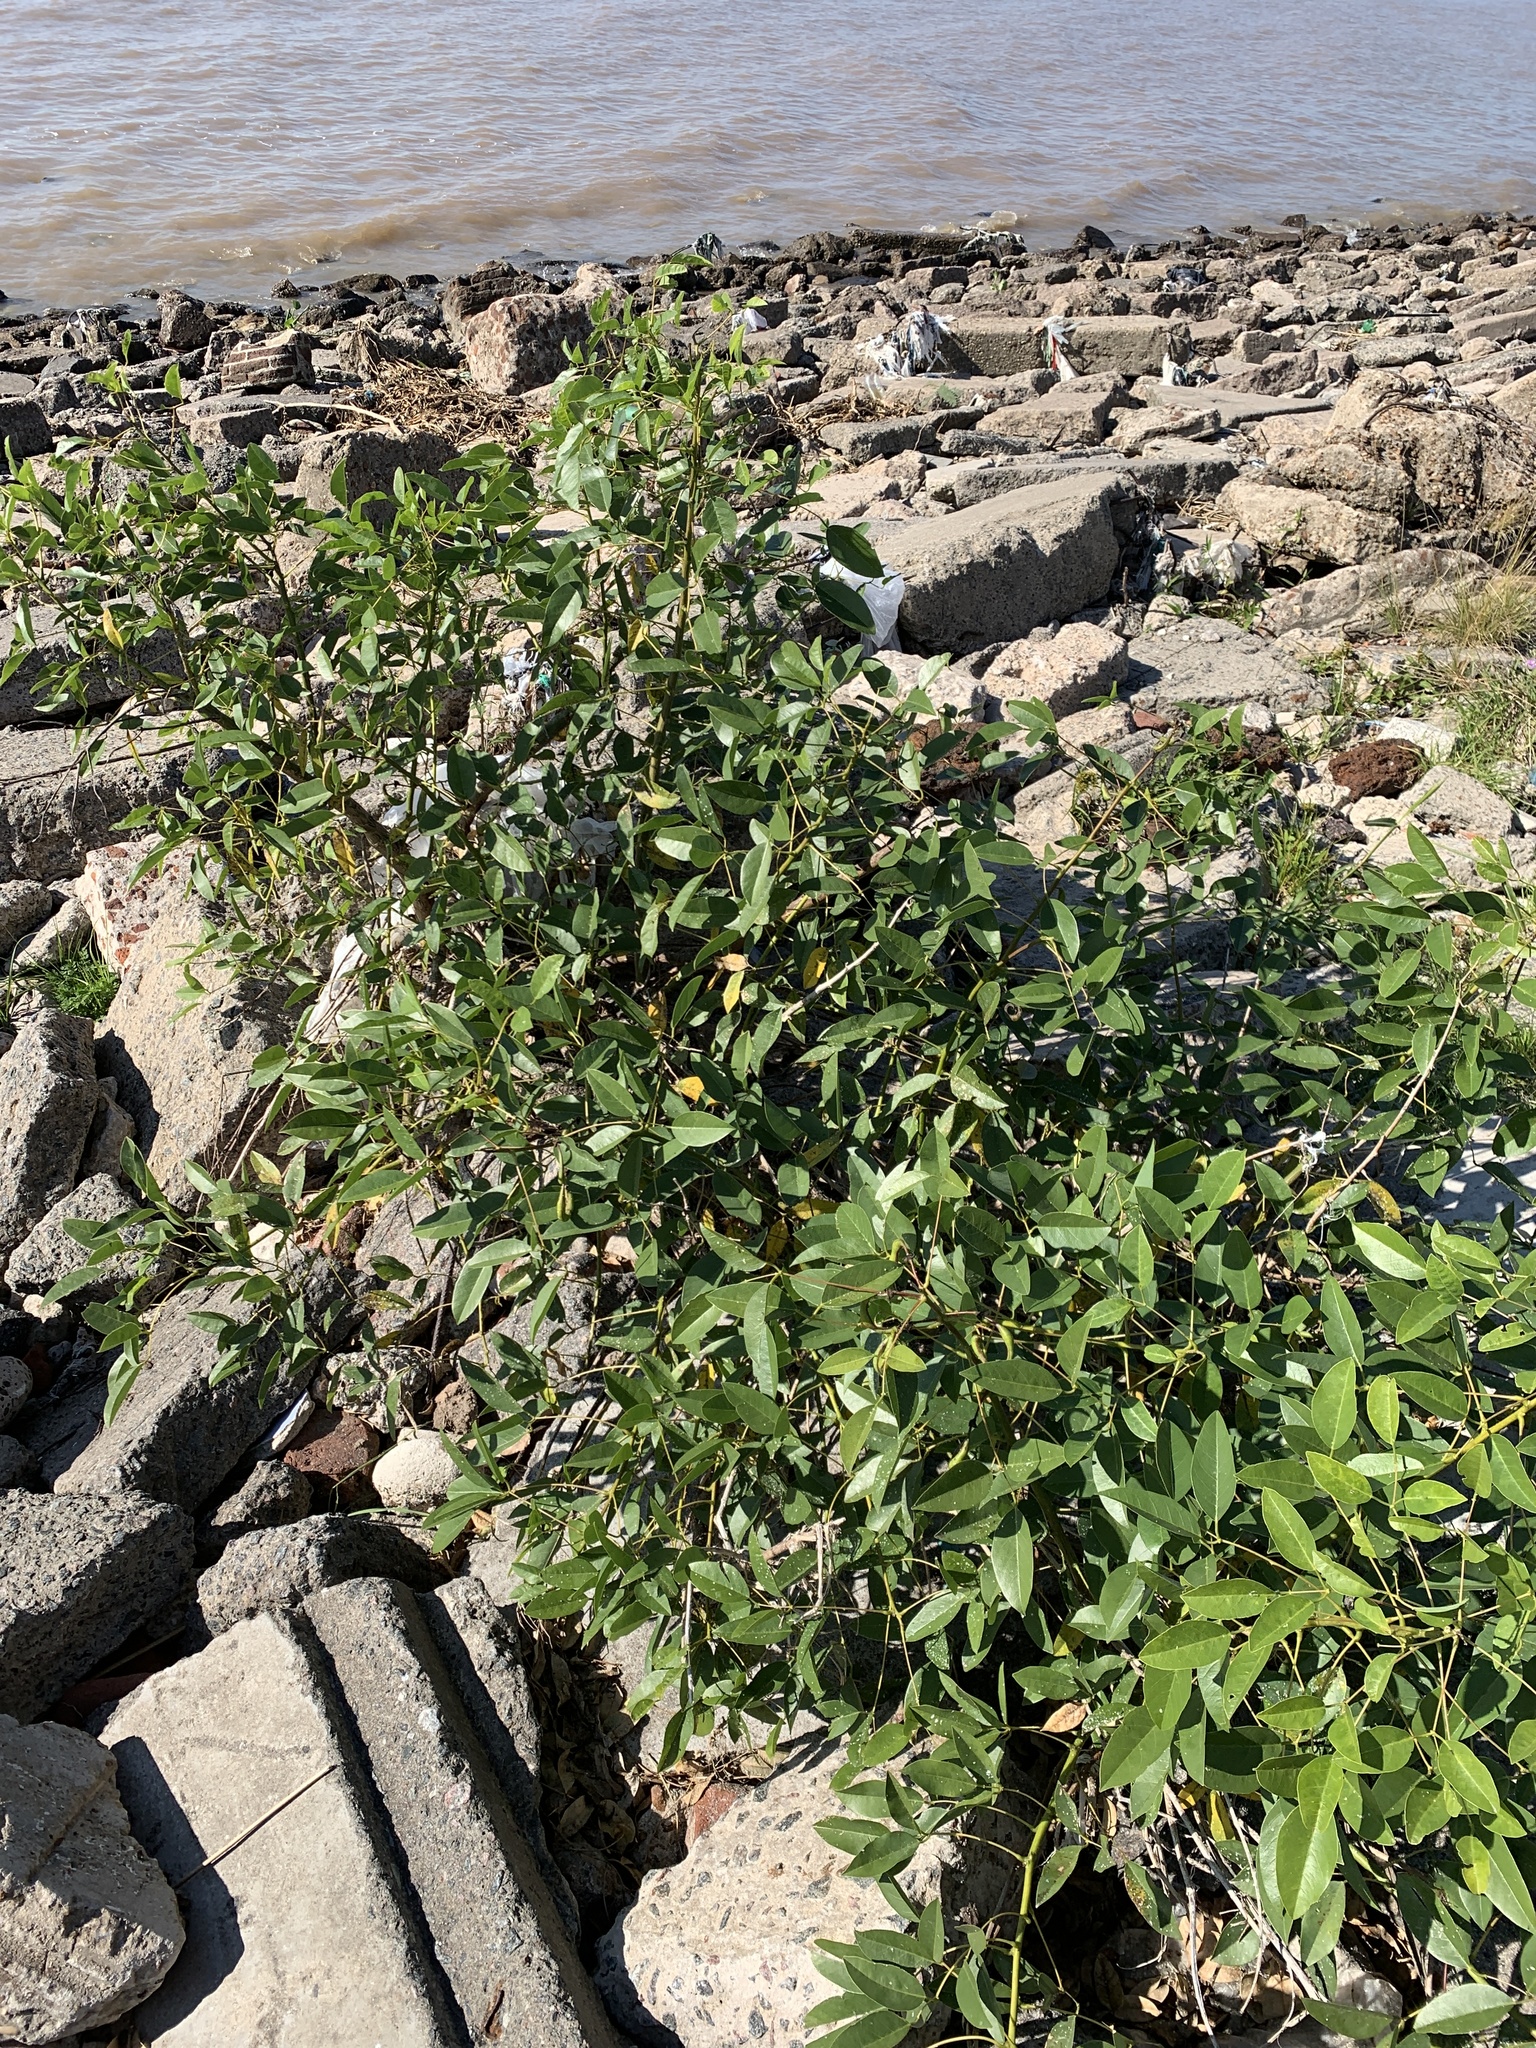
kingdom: Plantae
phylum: Tracheophyta
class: Magnoliopsida
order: Fabales
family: Fabaceae
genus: Erythrina
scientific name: Erythrina crista-galli
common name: Cockspur coral tree
